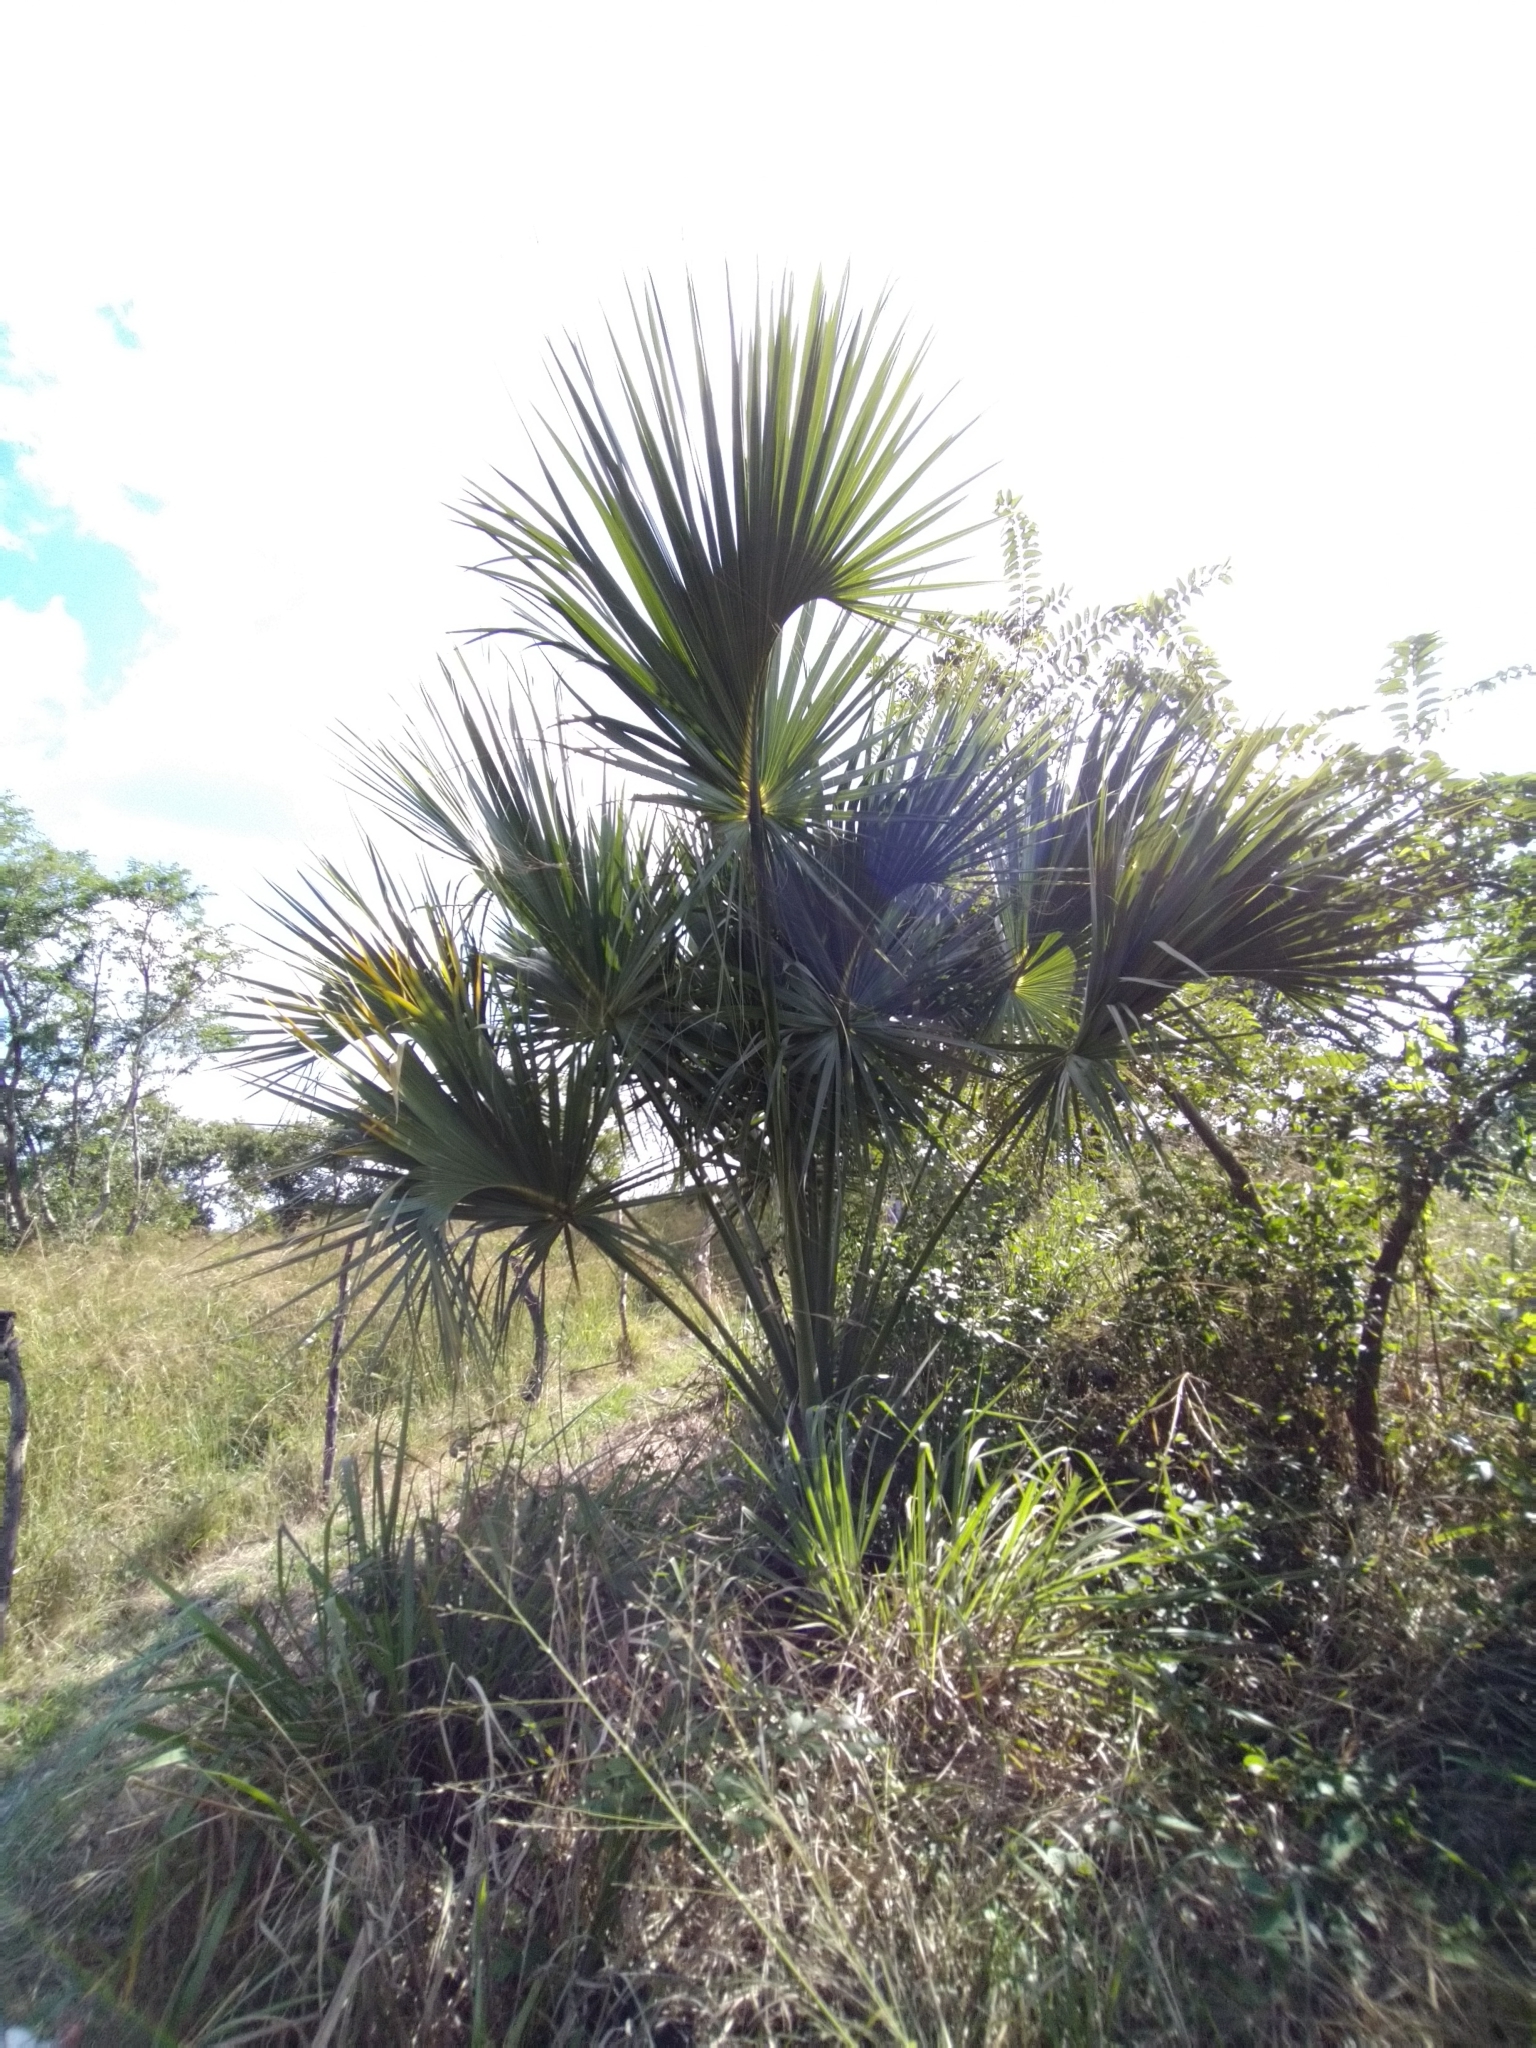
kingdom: Plantae
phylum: Tracheophyta
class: Liliopsida
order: Arecales
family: Arecaceae
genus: Sabal
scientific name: Sabal mexicana
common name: Texas palmetto
